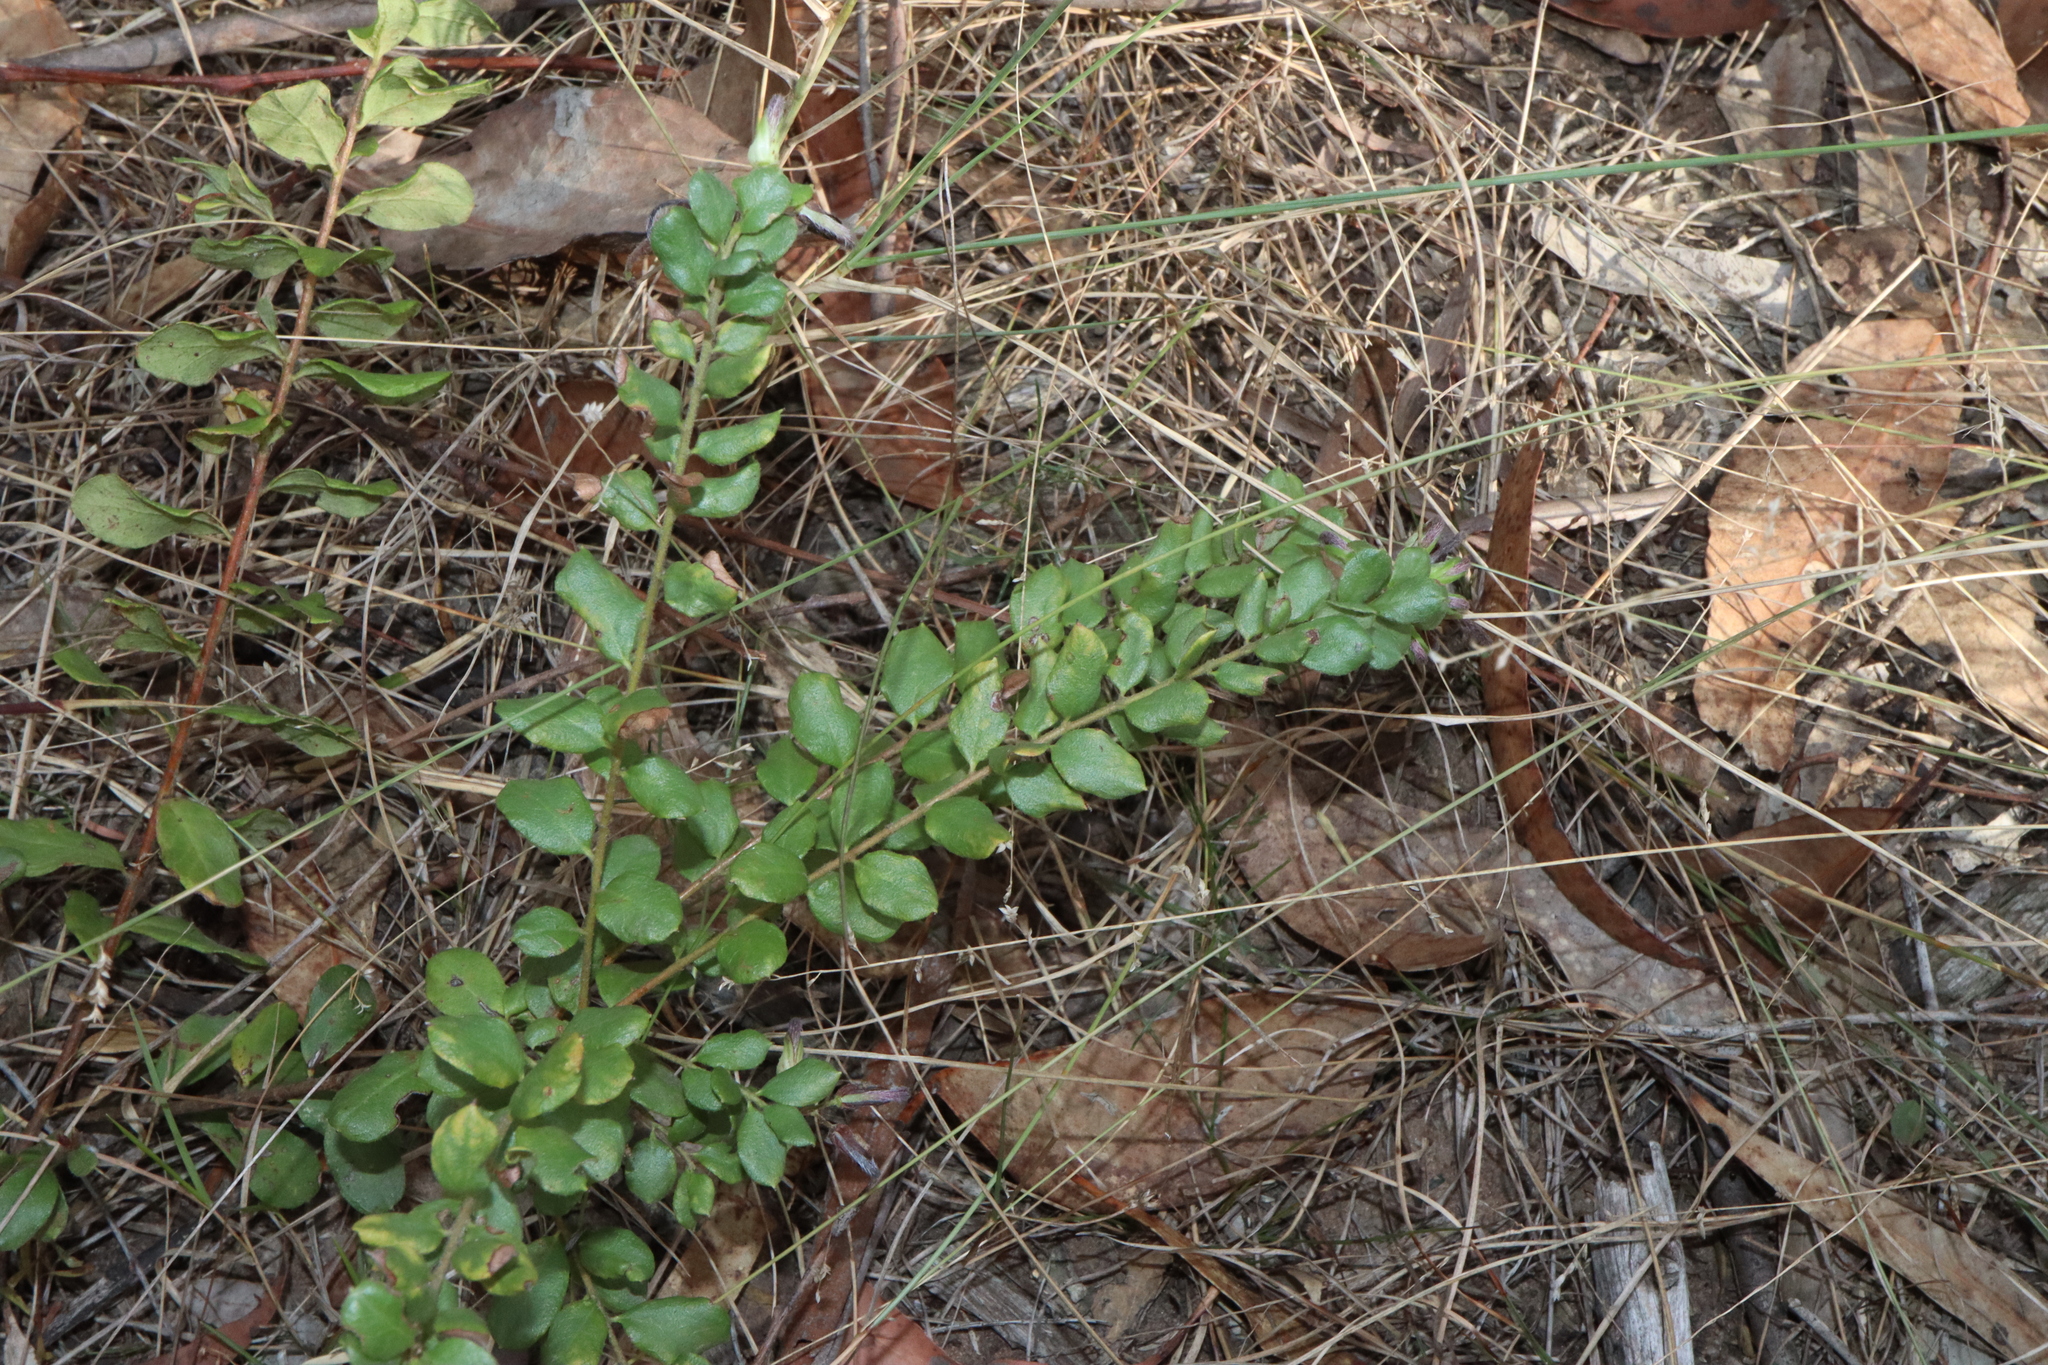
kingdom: Plantae
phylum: Tracheophyta
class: Magnoliopsida
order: Proteales
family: Proteaceae
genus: Grevillea
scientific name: Grevillea mucronulata
